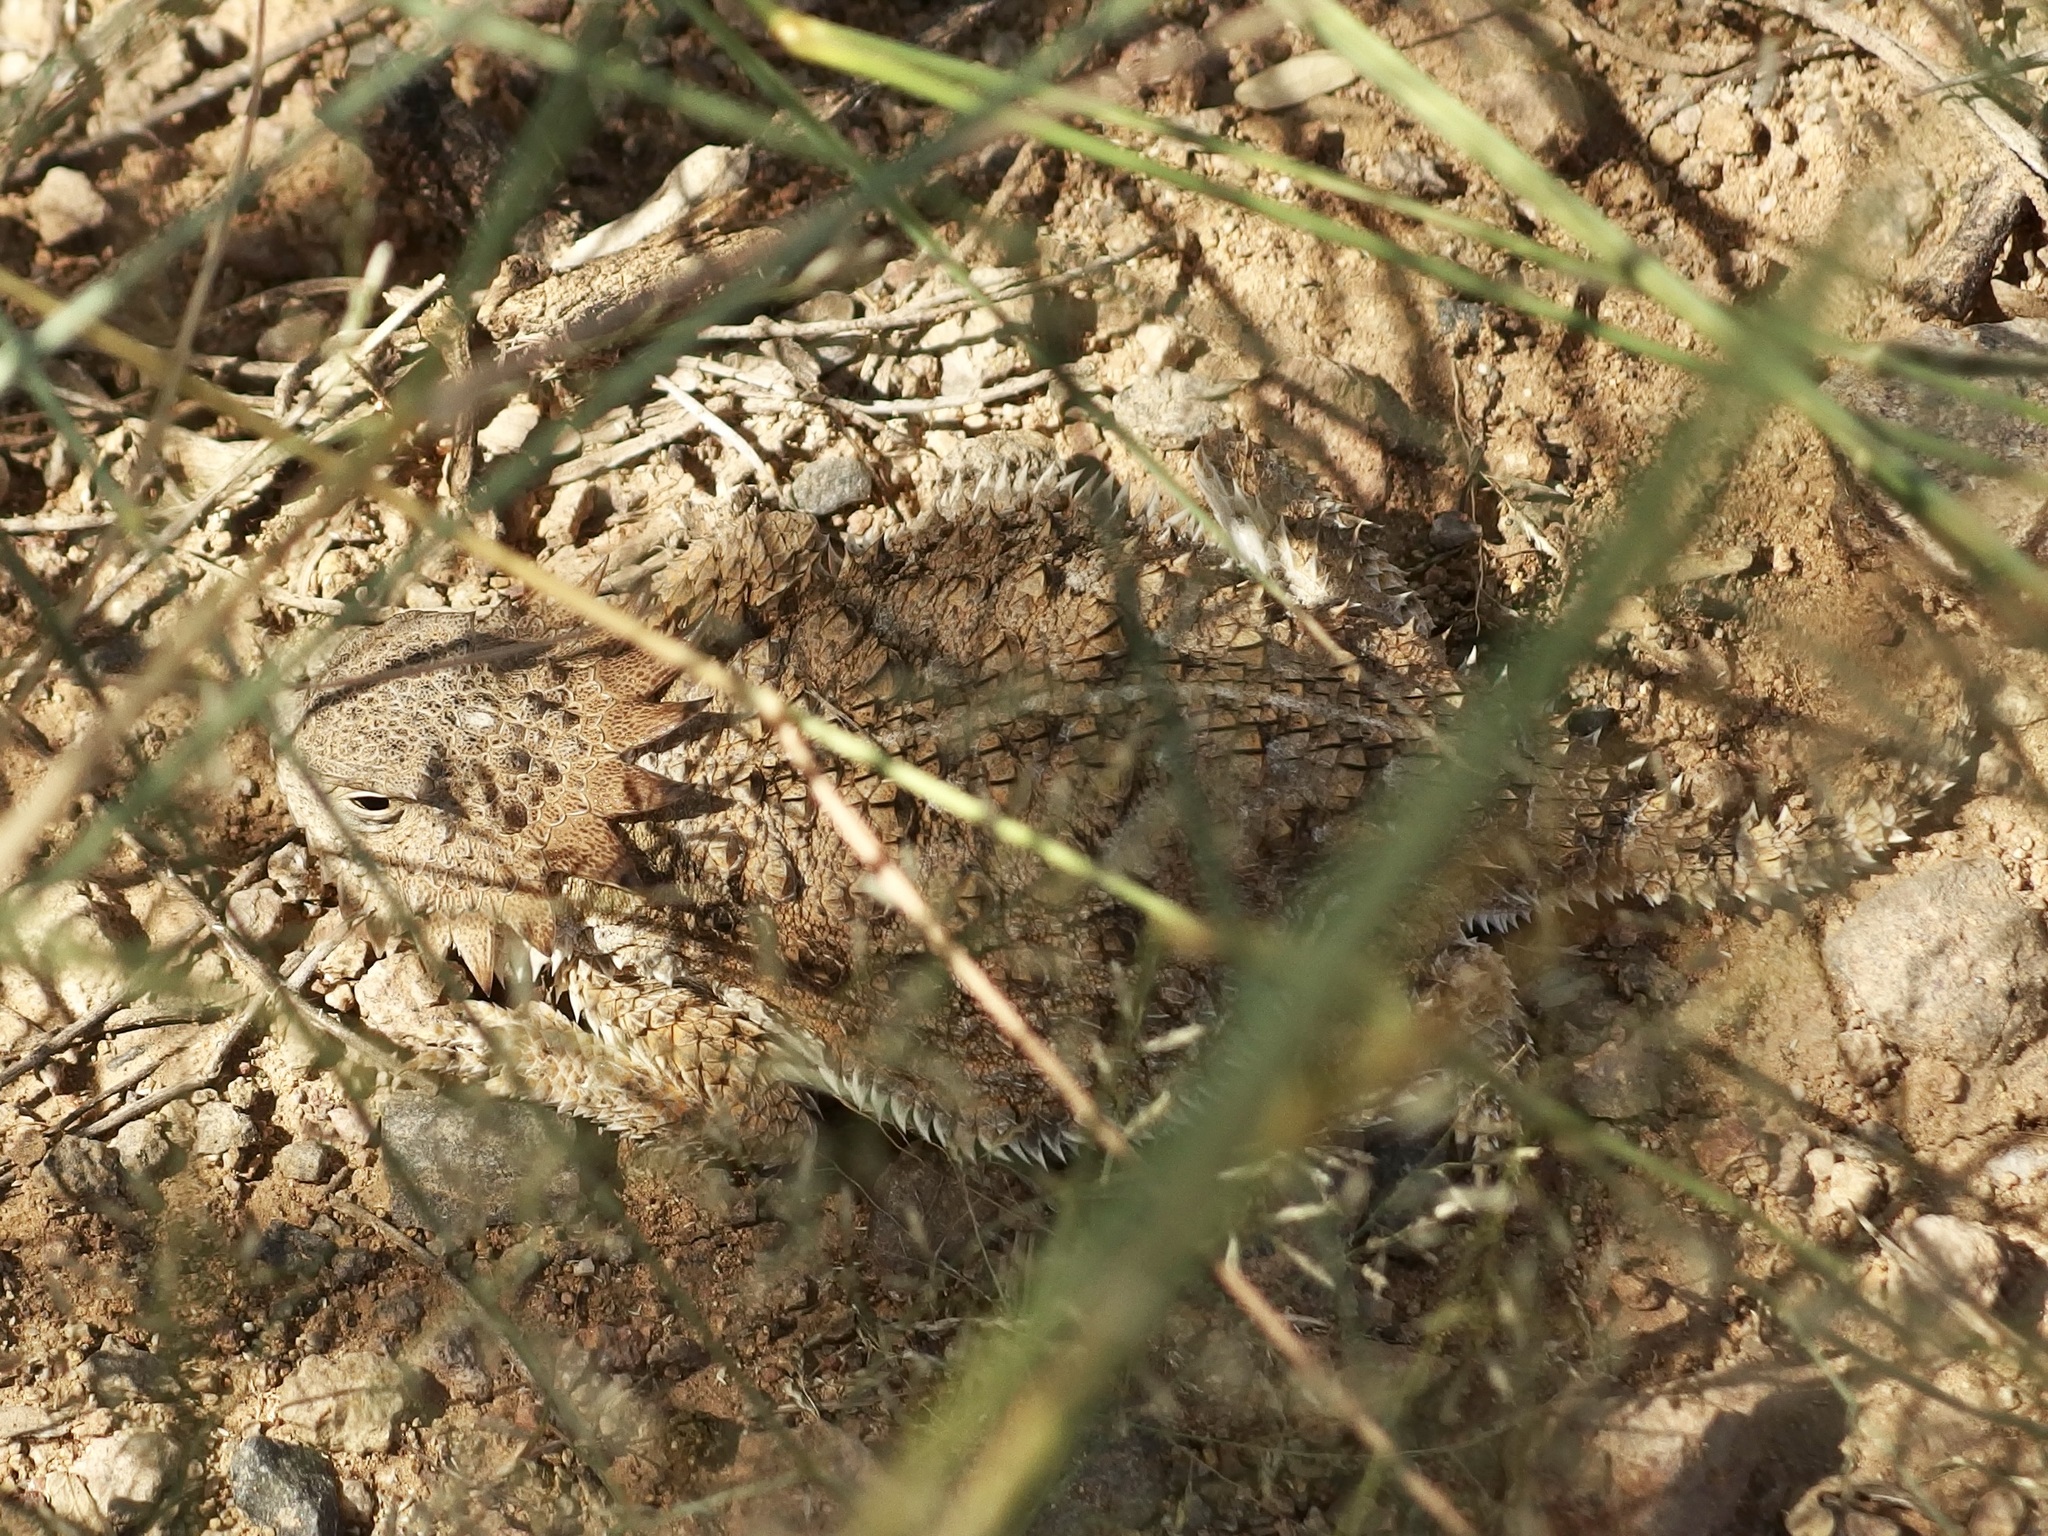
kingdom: Animalia
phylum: Chordata
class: Squamata
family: Phrynosomatidae
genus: Phrynosoma
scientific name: Phrynosoma solare
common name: Regal horned lizard
